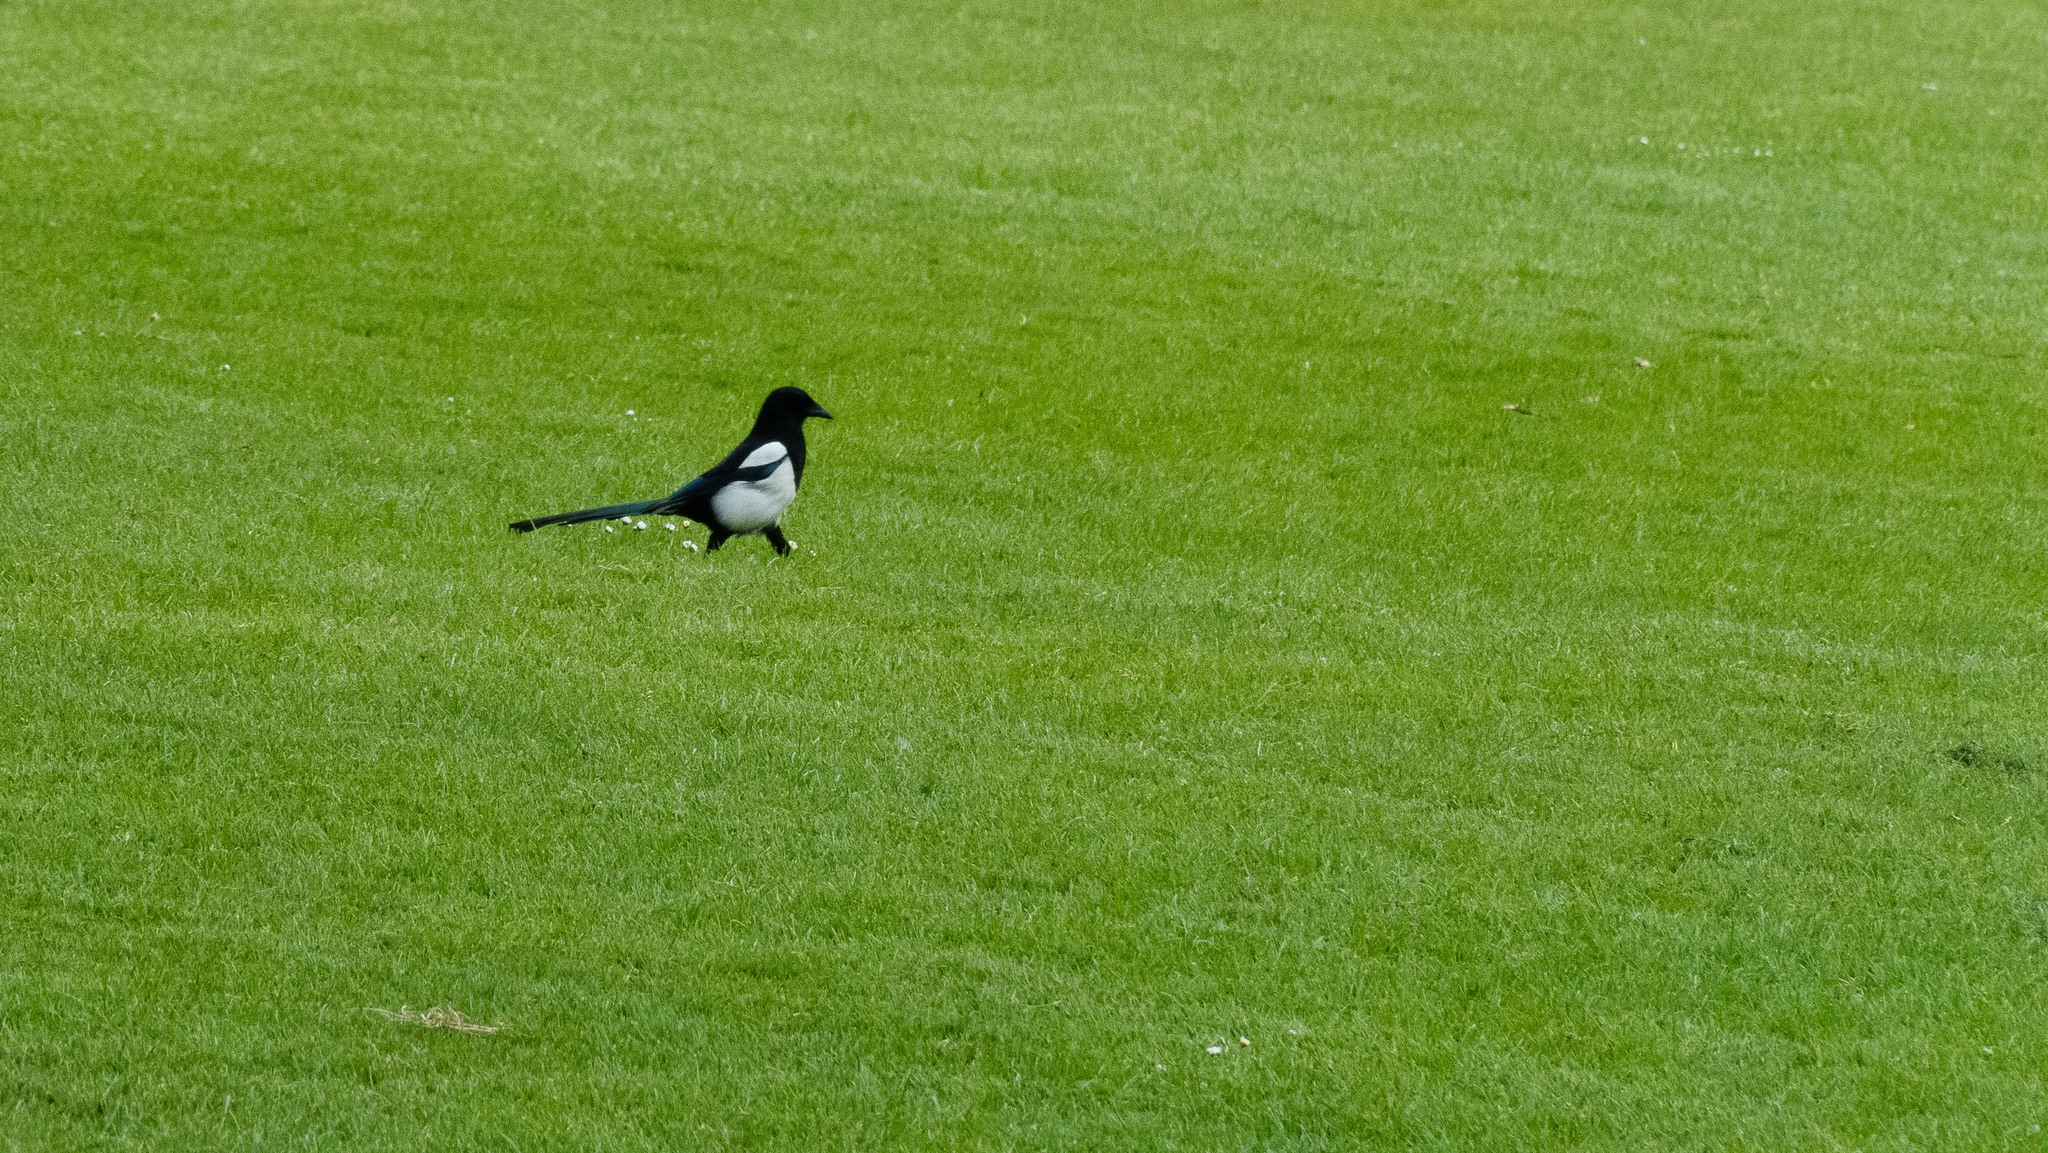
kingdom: Animalia
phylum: Chordata
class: Aves
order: Passeriformes
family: Corvidae
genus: Pica
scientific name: Pica pica
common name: Eurasian magpie
